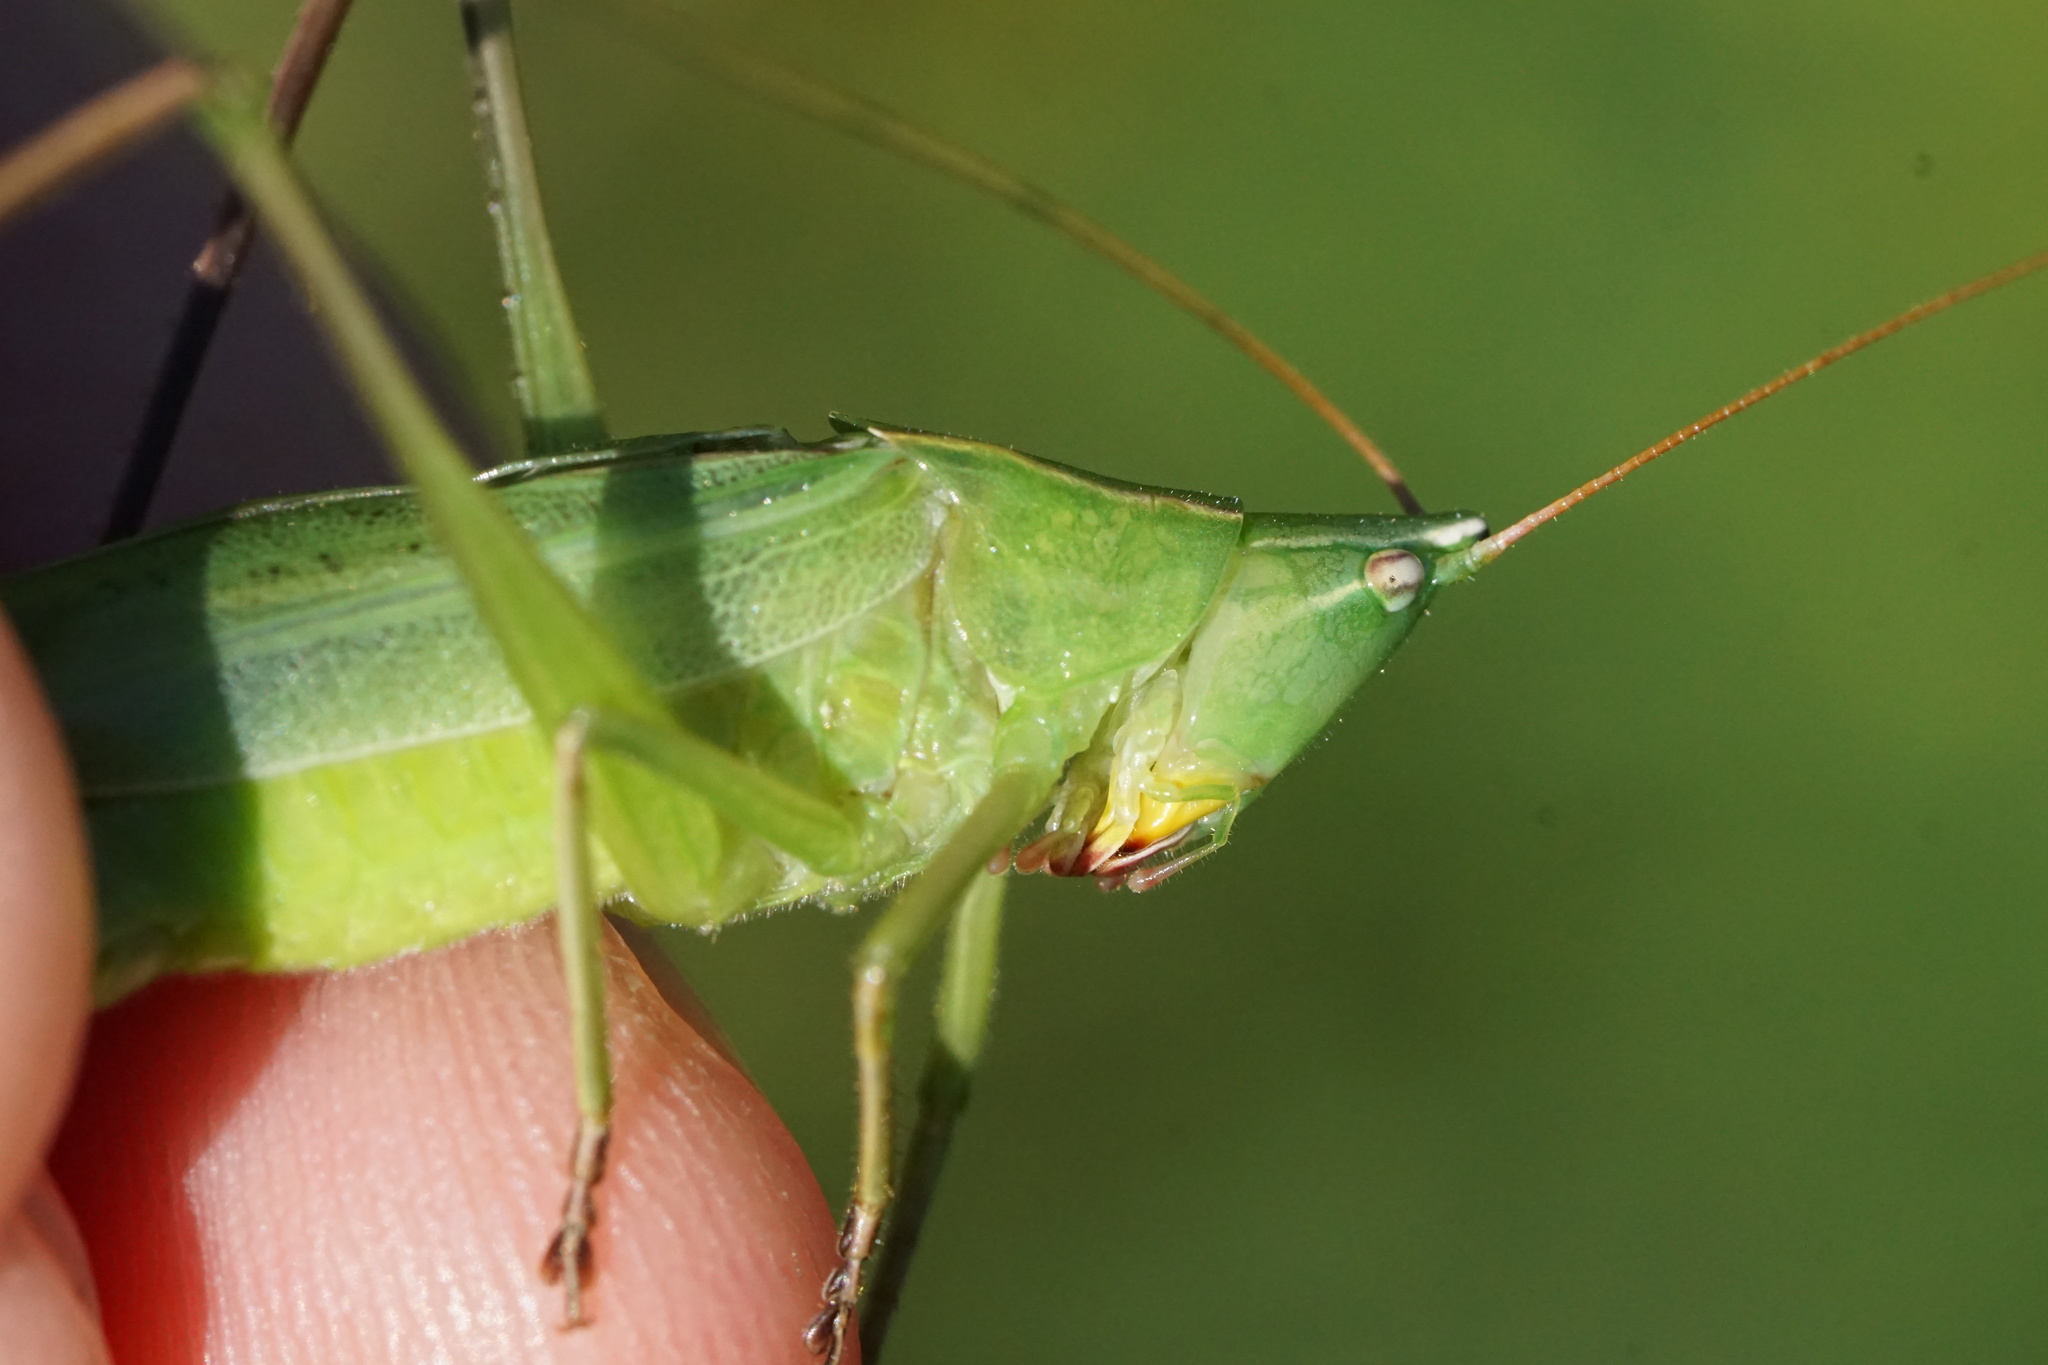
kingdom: Animalia
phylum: Arthropoda
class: Insecta
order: Orthoptera
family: Tettigoniidae
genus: Neoconocephalus
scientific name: Neoconocephalus retusus
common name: Round-tipped conehead
